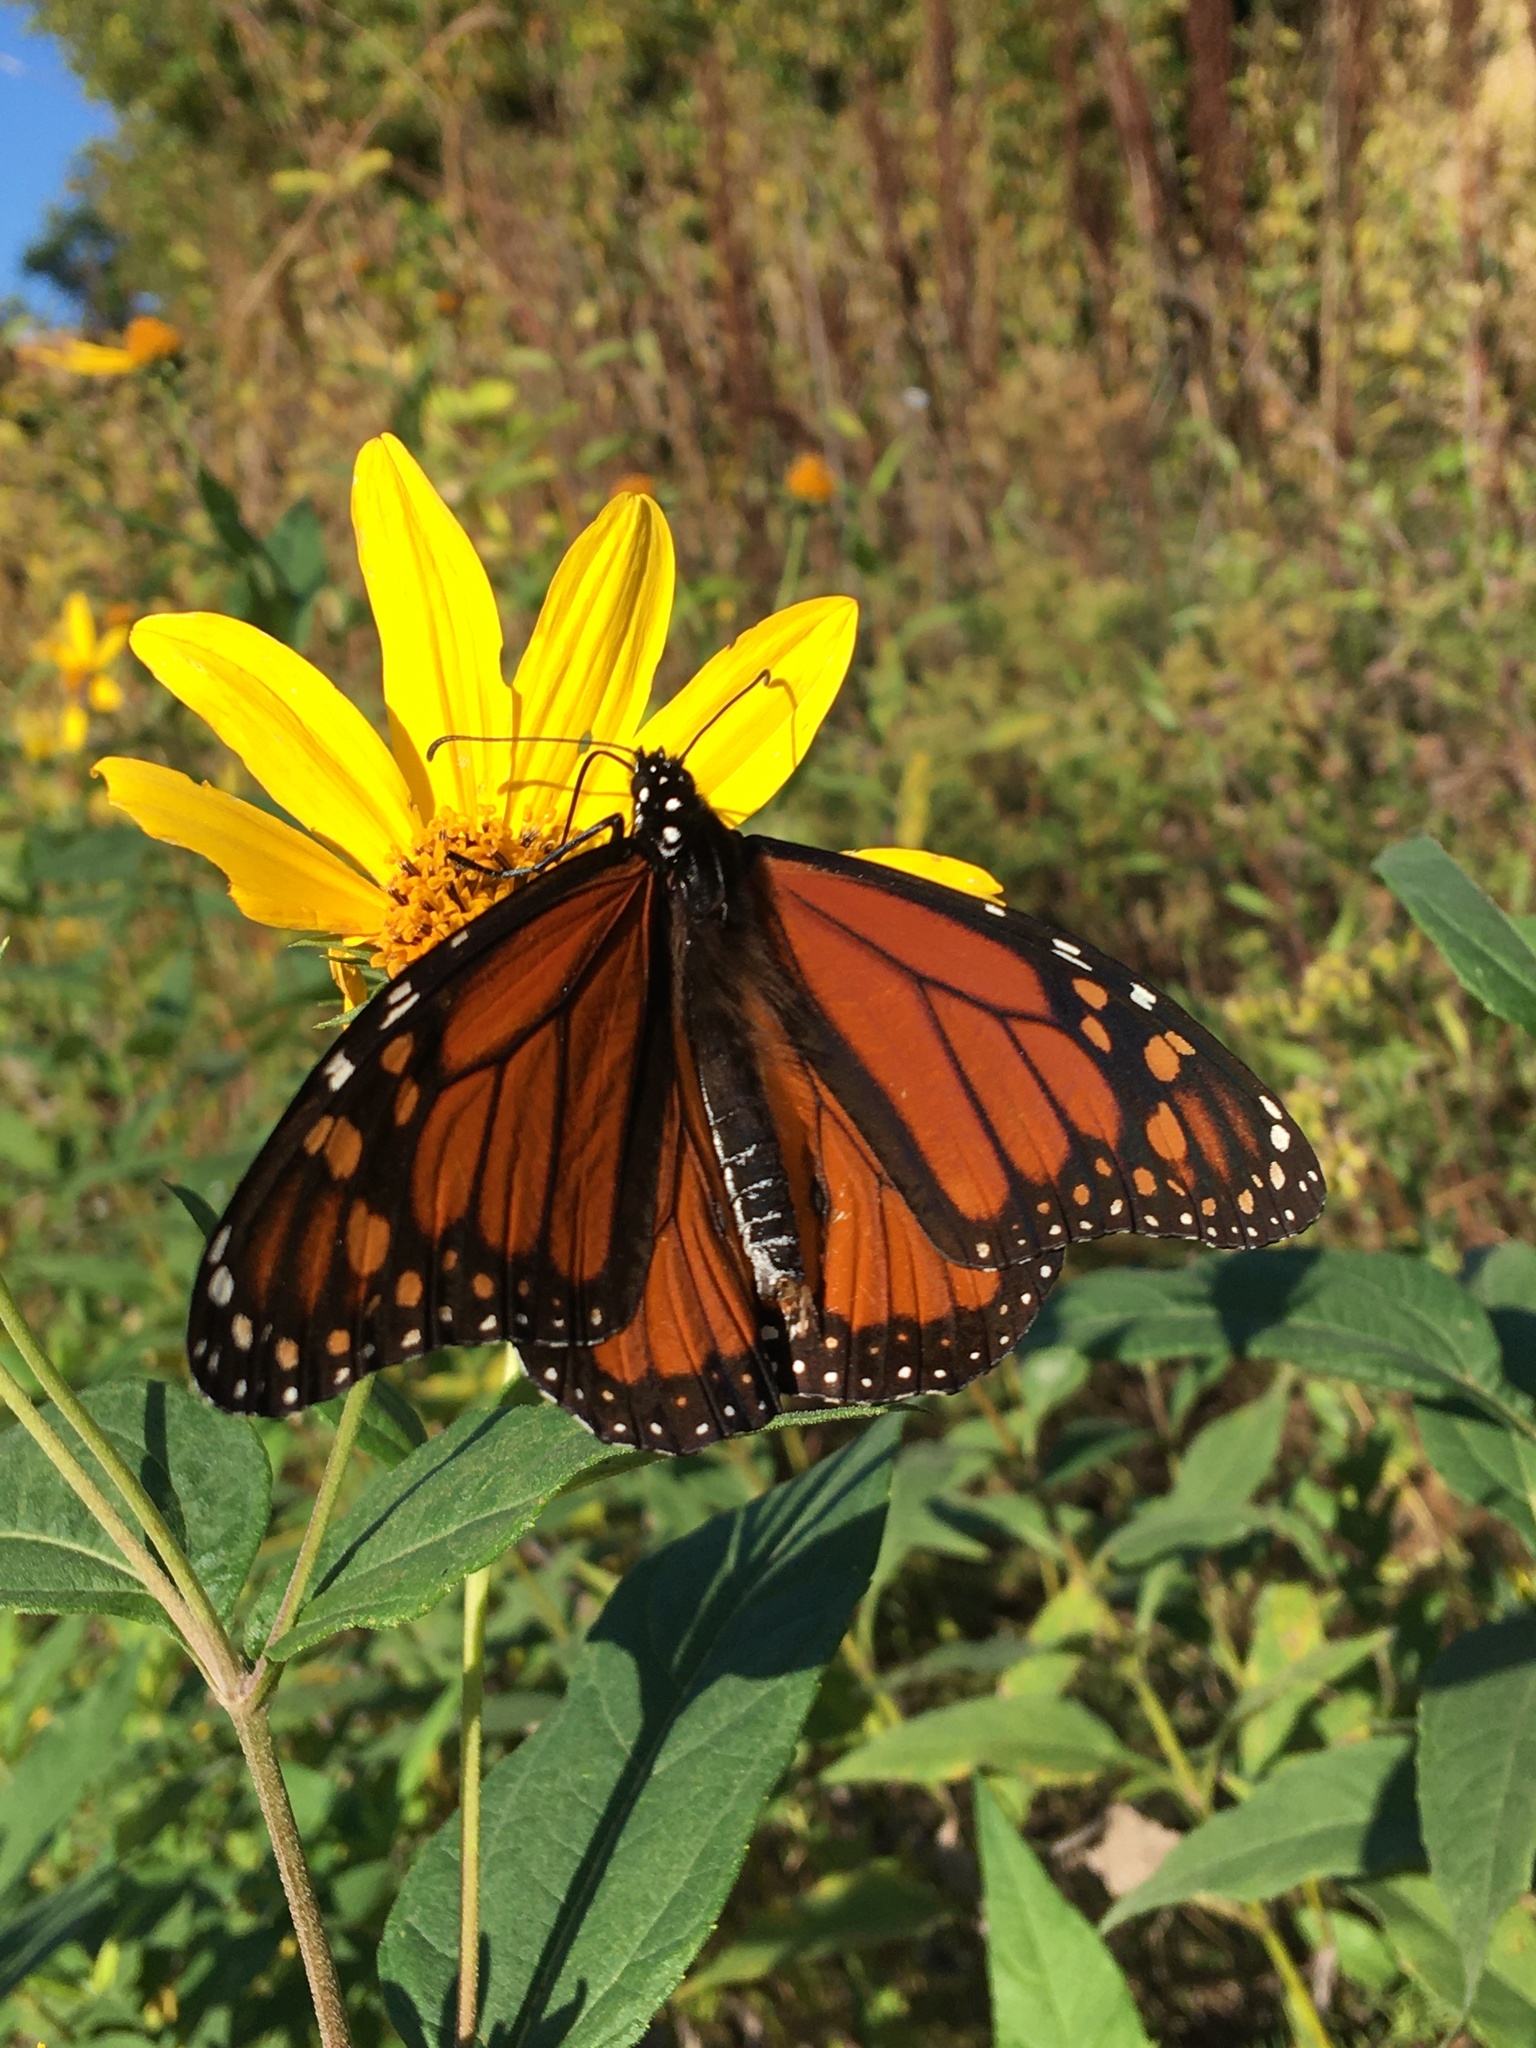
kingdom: Animalia
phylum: Arthropoda
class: Insecta
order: Lepidoptera
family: Nymphalidae
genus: Danaus
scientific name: Danaus plexippus
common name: Monarch
